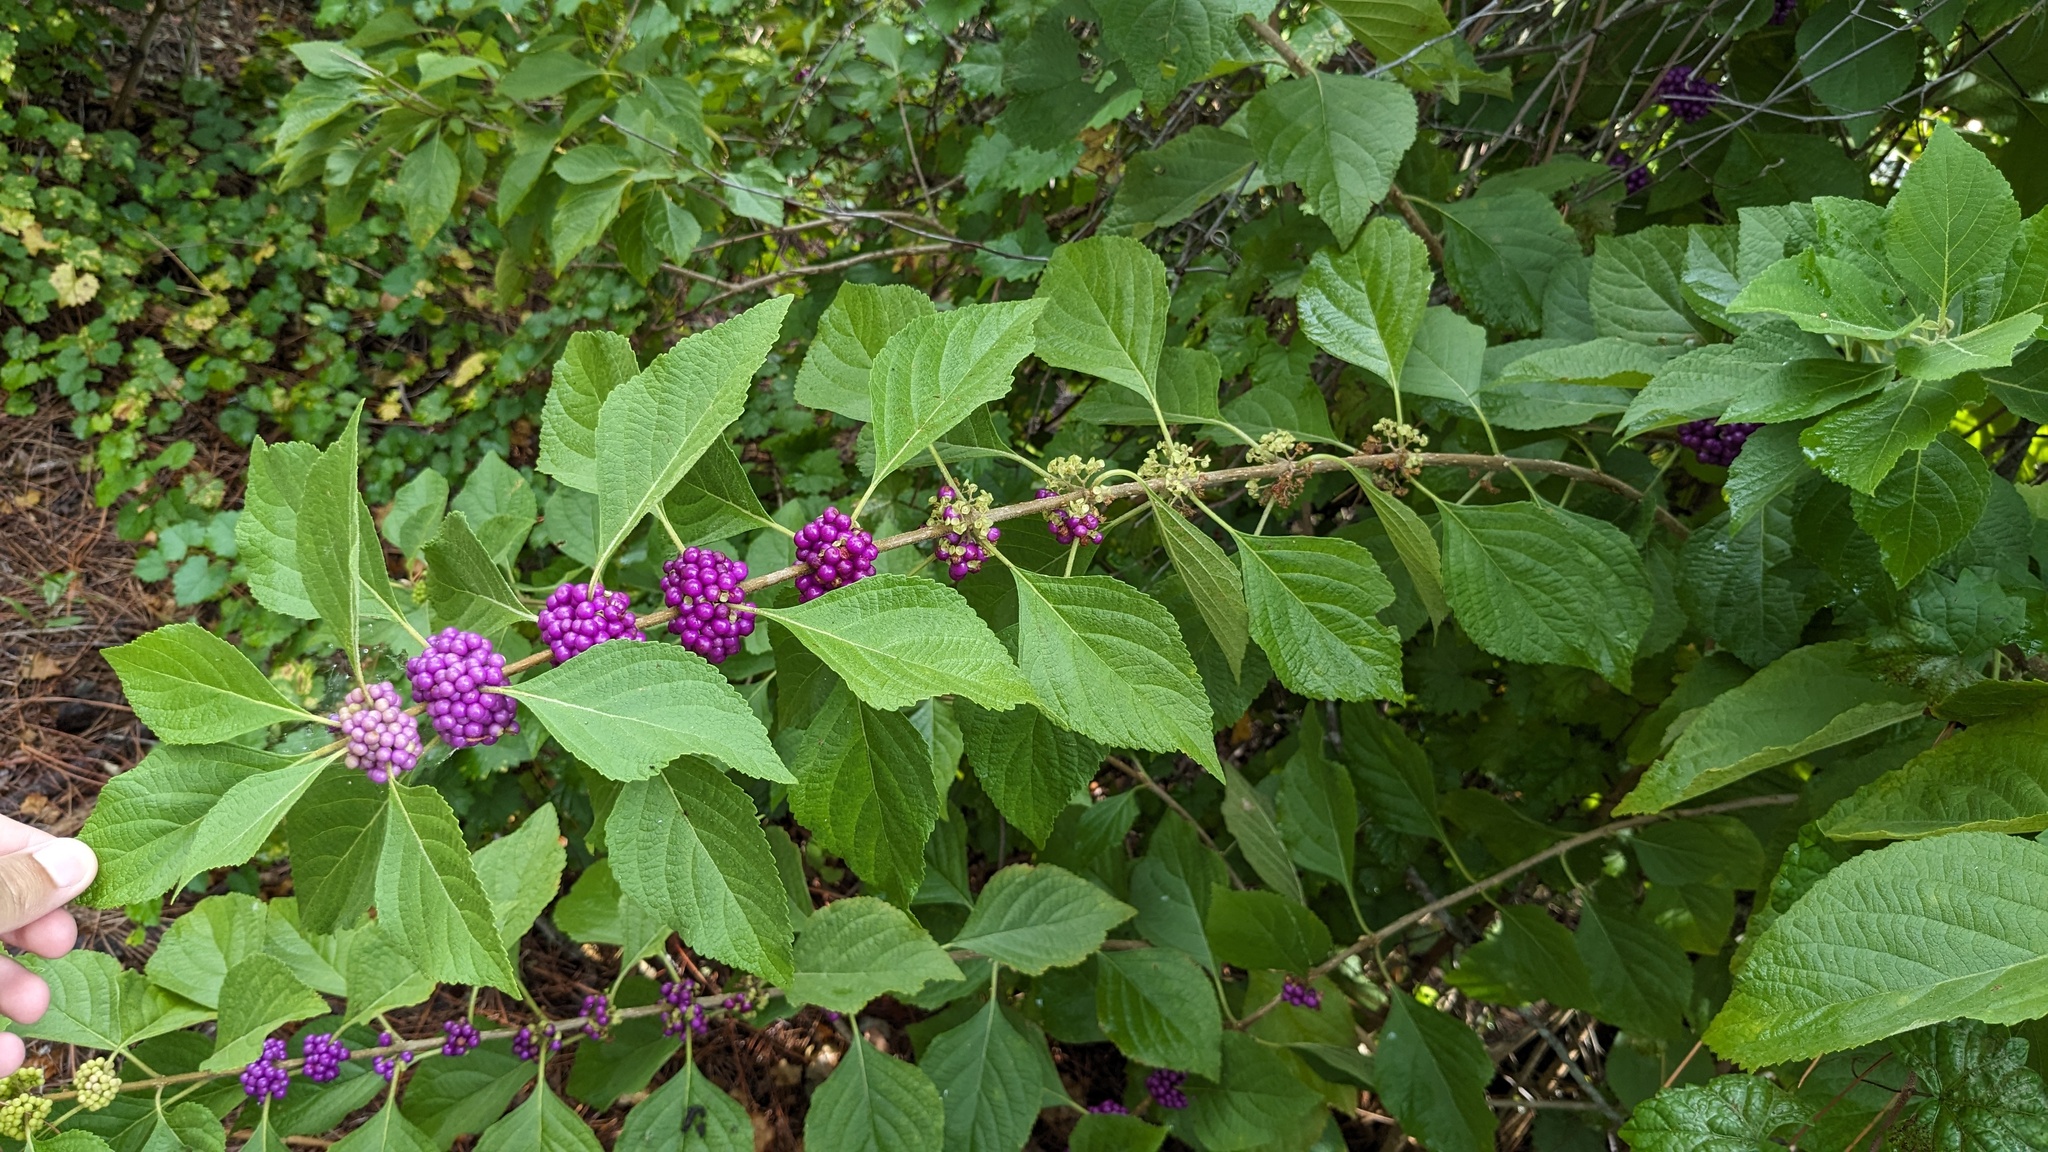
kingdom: Plantae
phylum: Tracheophyta
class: Magnoliopsida
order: Lamiales
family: Lamiaceae
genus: Callicarpa
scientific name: Callicarpa americana
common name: American beautyberry
